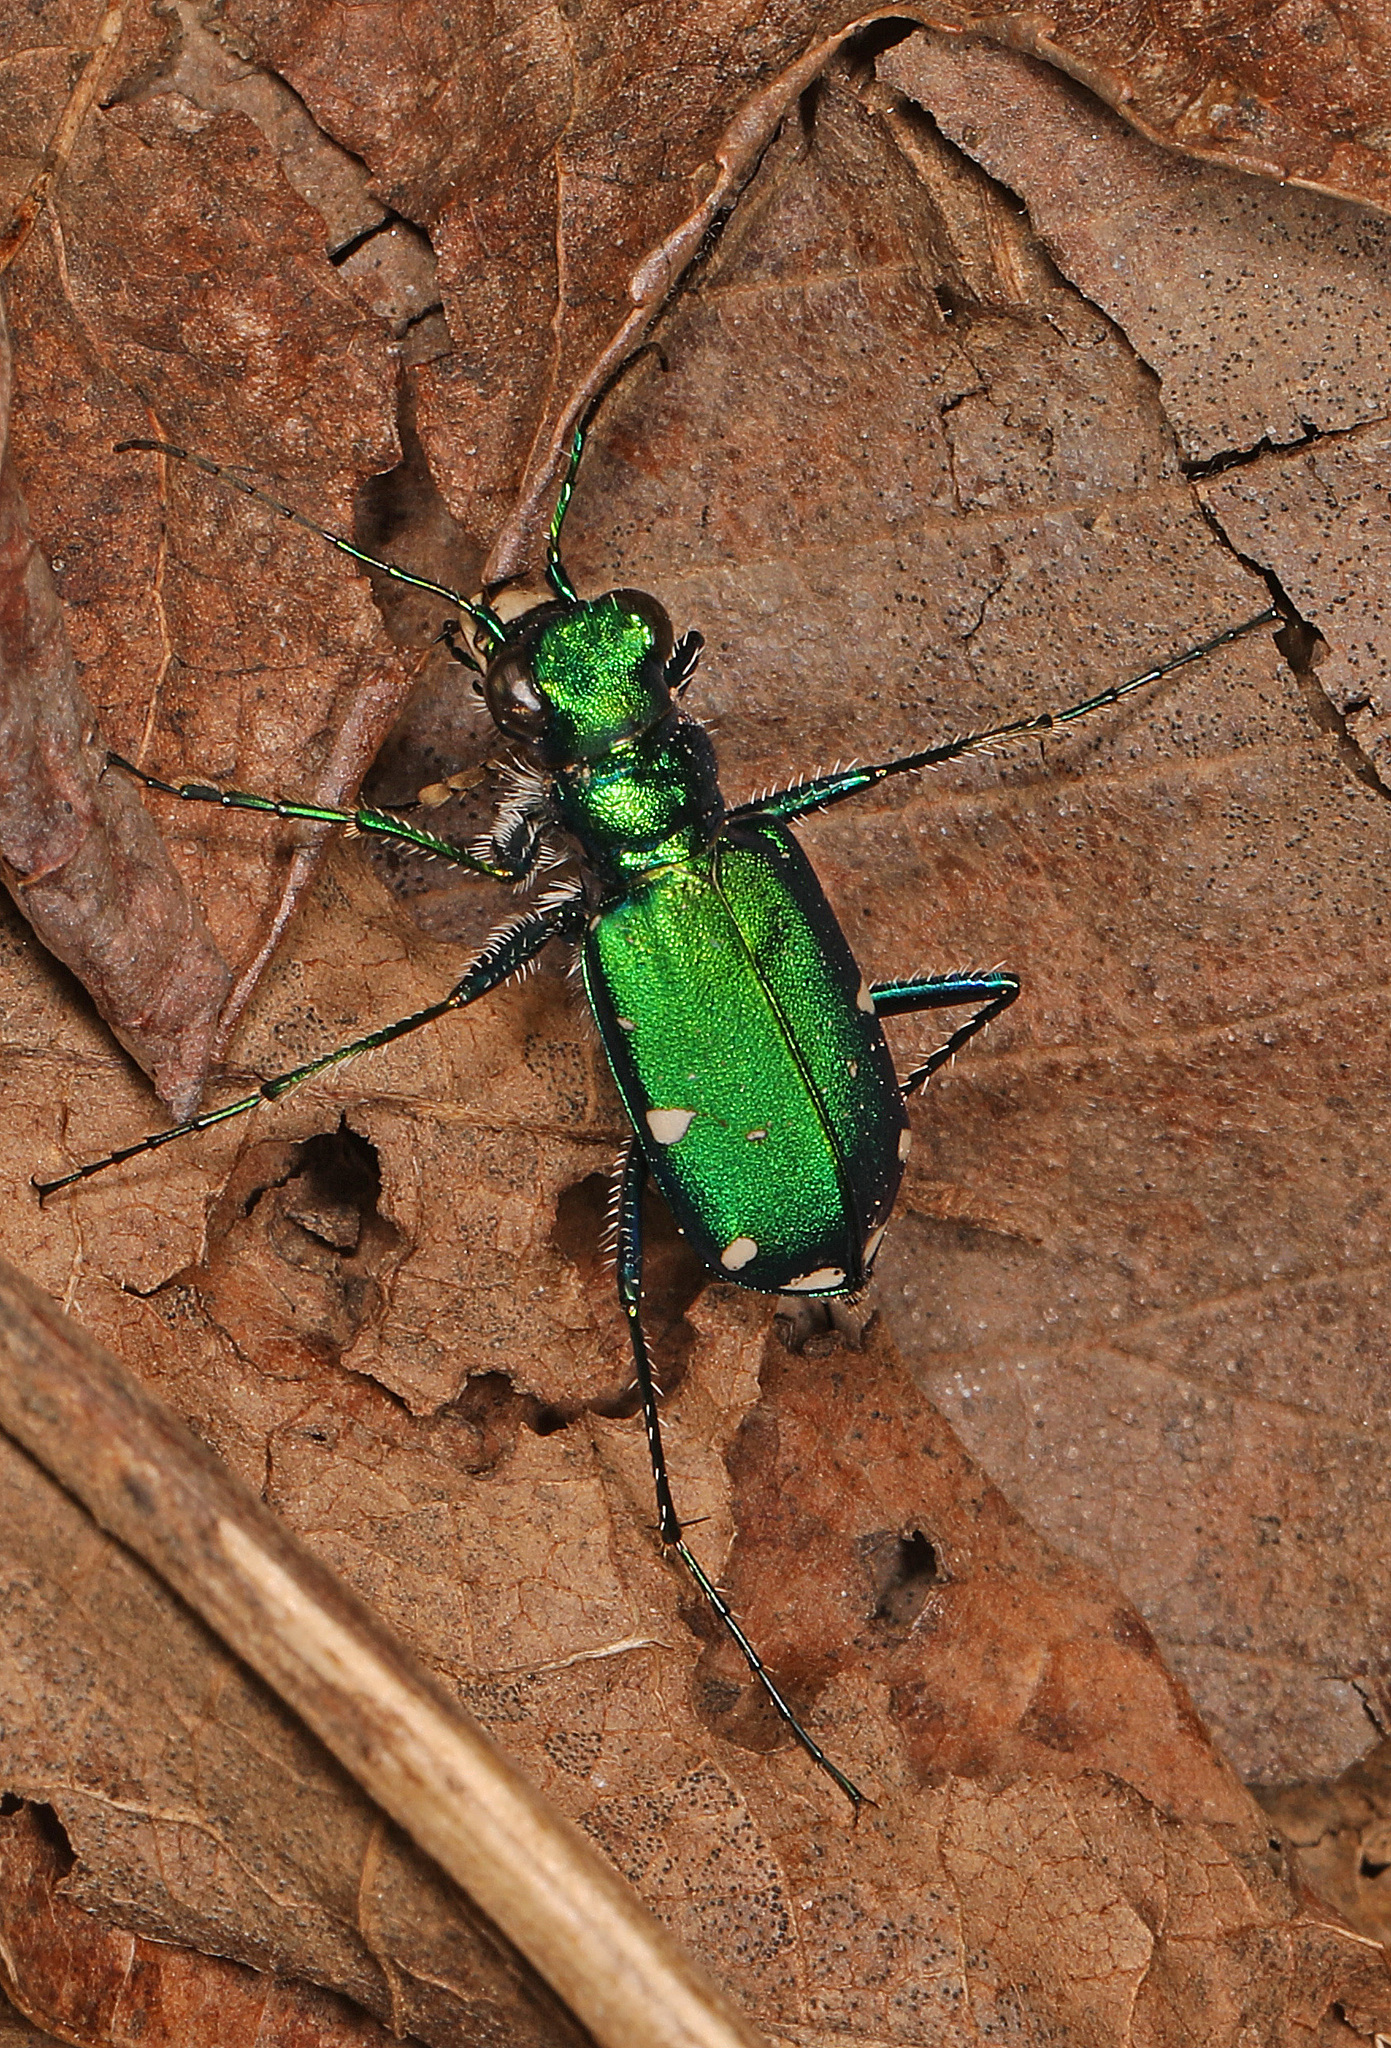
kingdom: Animalia
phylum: Arthropoda
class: Insecta
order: Coleoptera
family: Carabidae
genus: Cicindela
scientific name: Cicindela sexguttata
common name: Six-spotted tiger beetle
